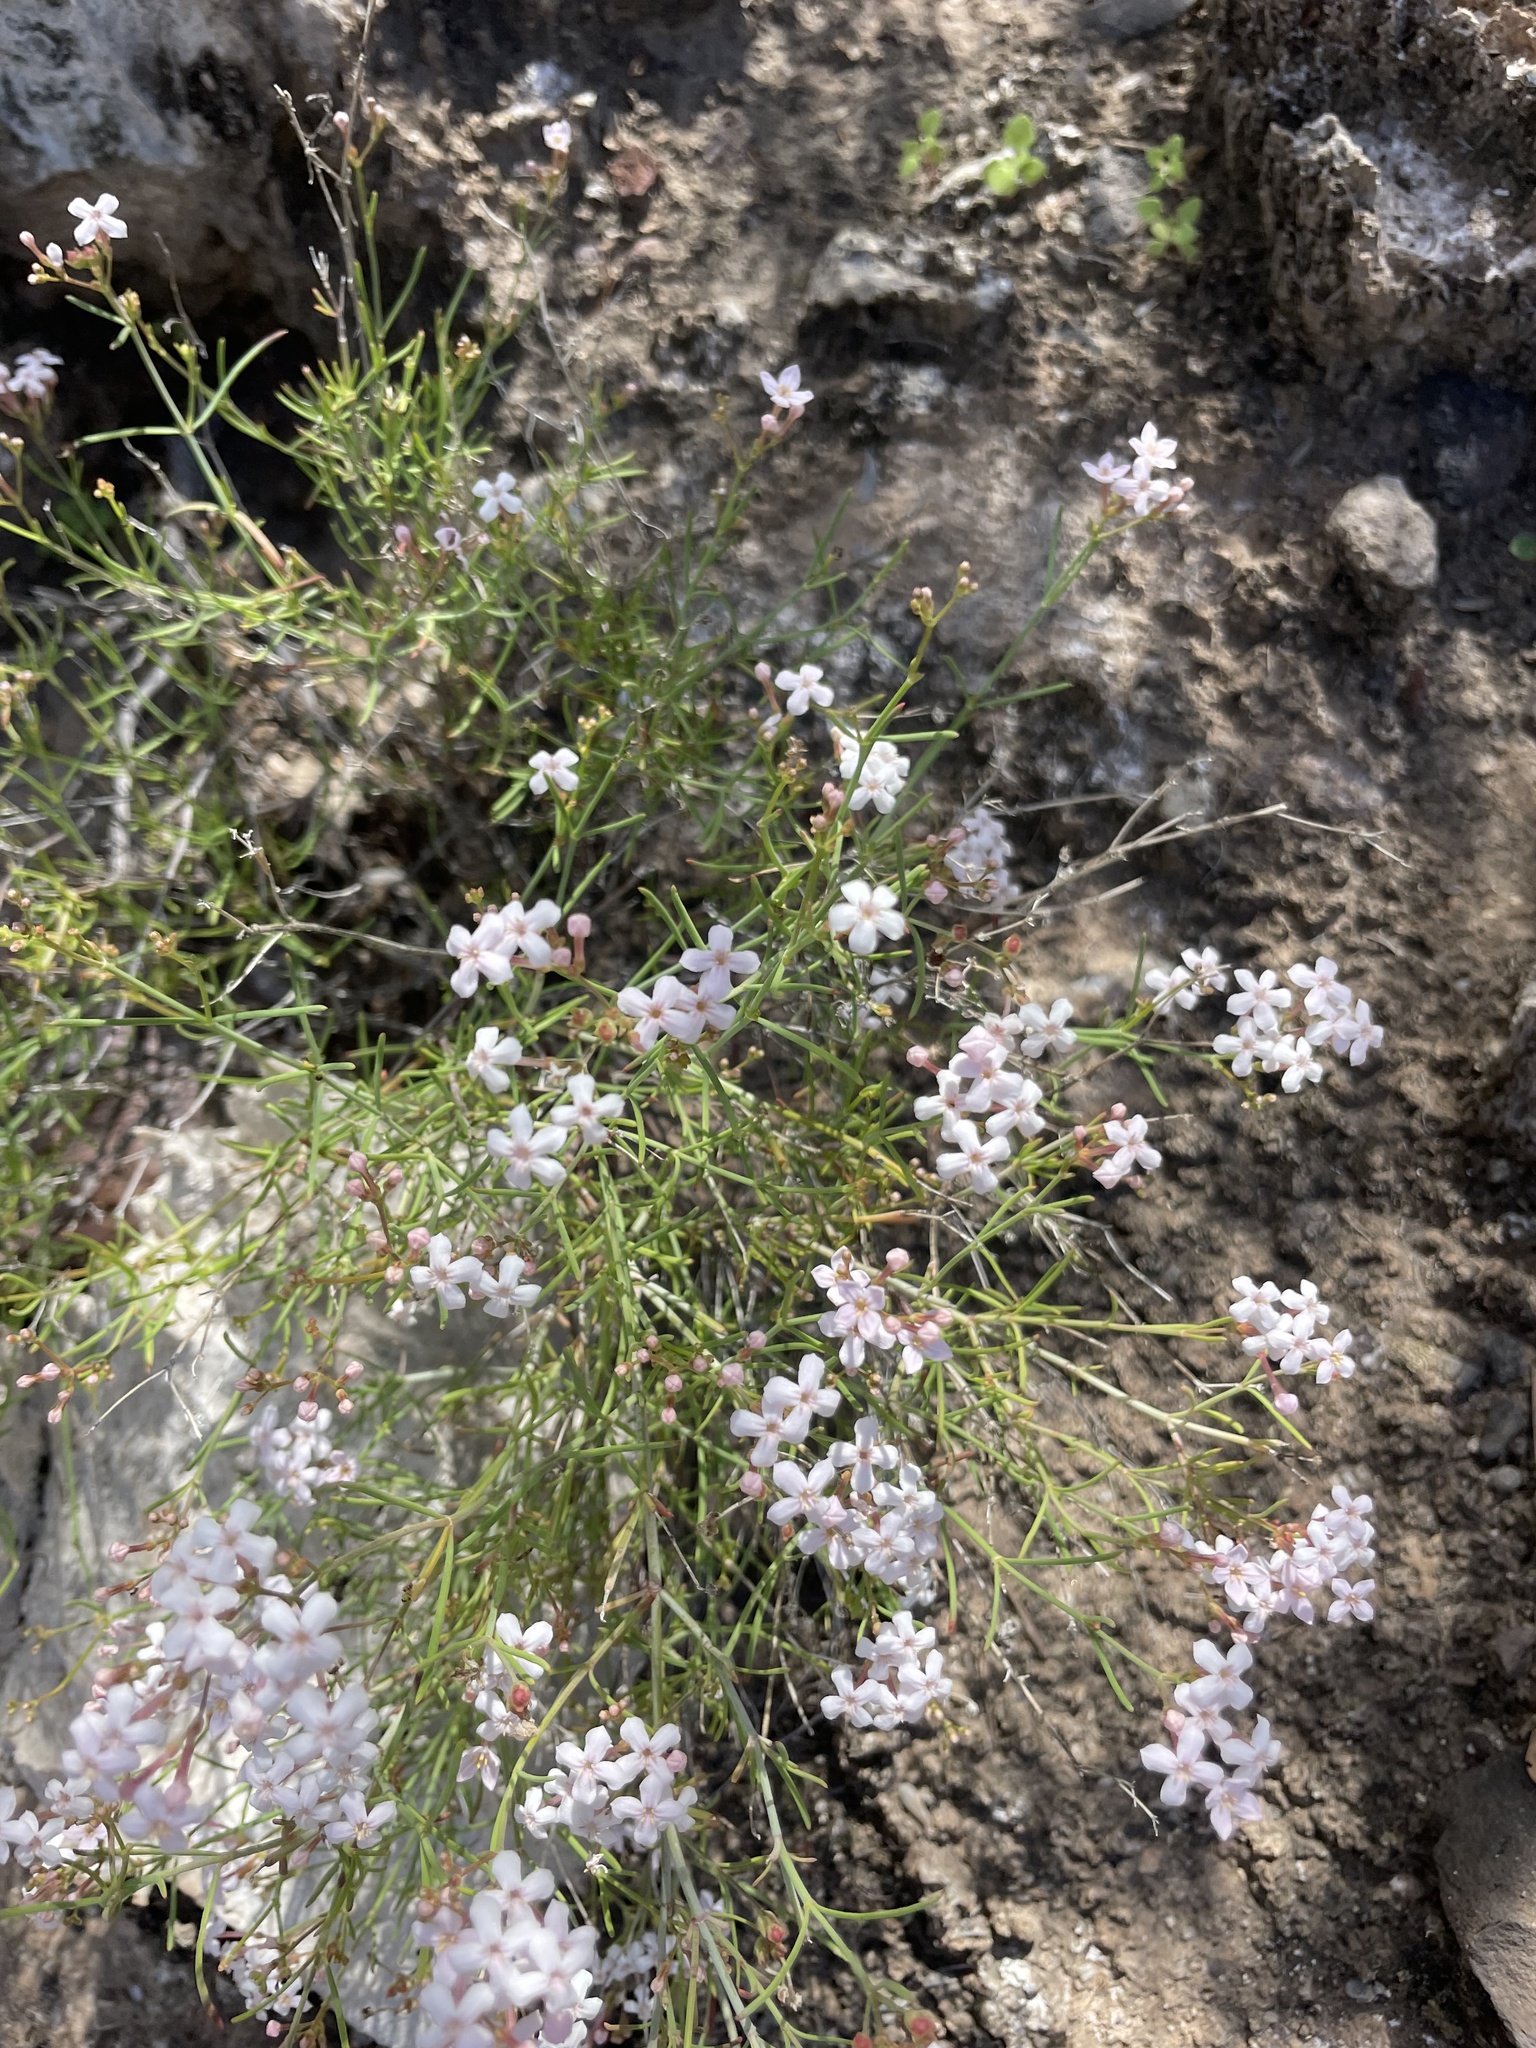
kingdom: Plantae
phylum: Tracheophyta
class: Magnoliopsida
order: Gentianales
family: Rubiaceae
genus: Stenotis
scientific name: Stenotis brevipes
